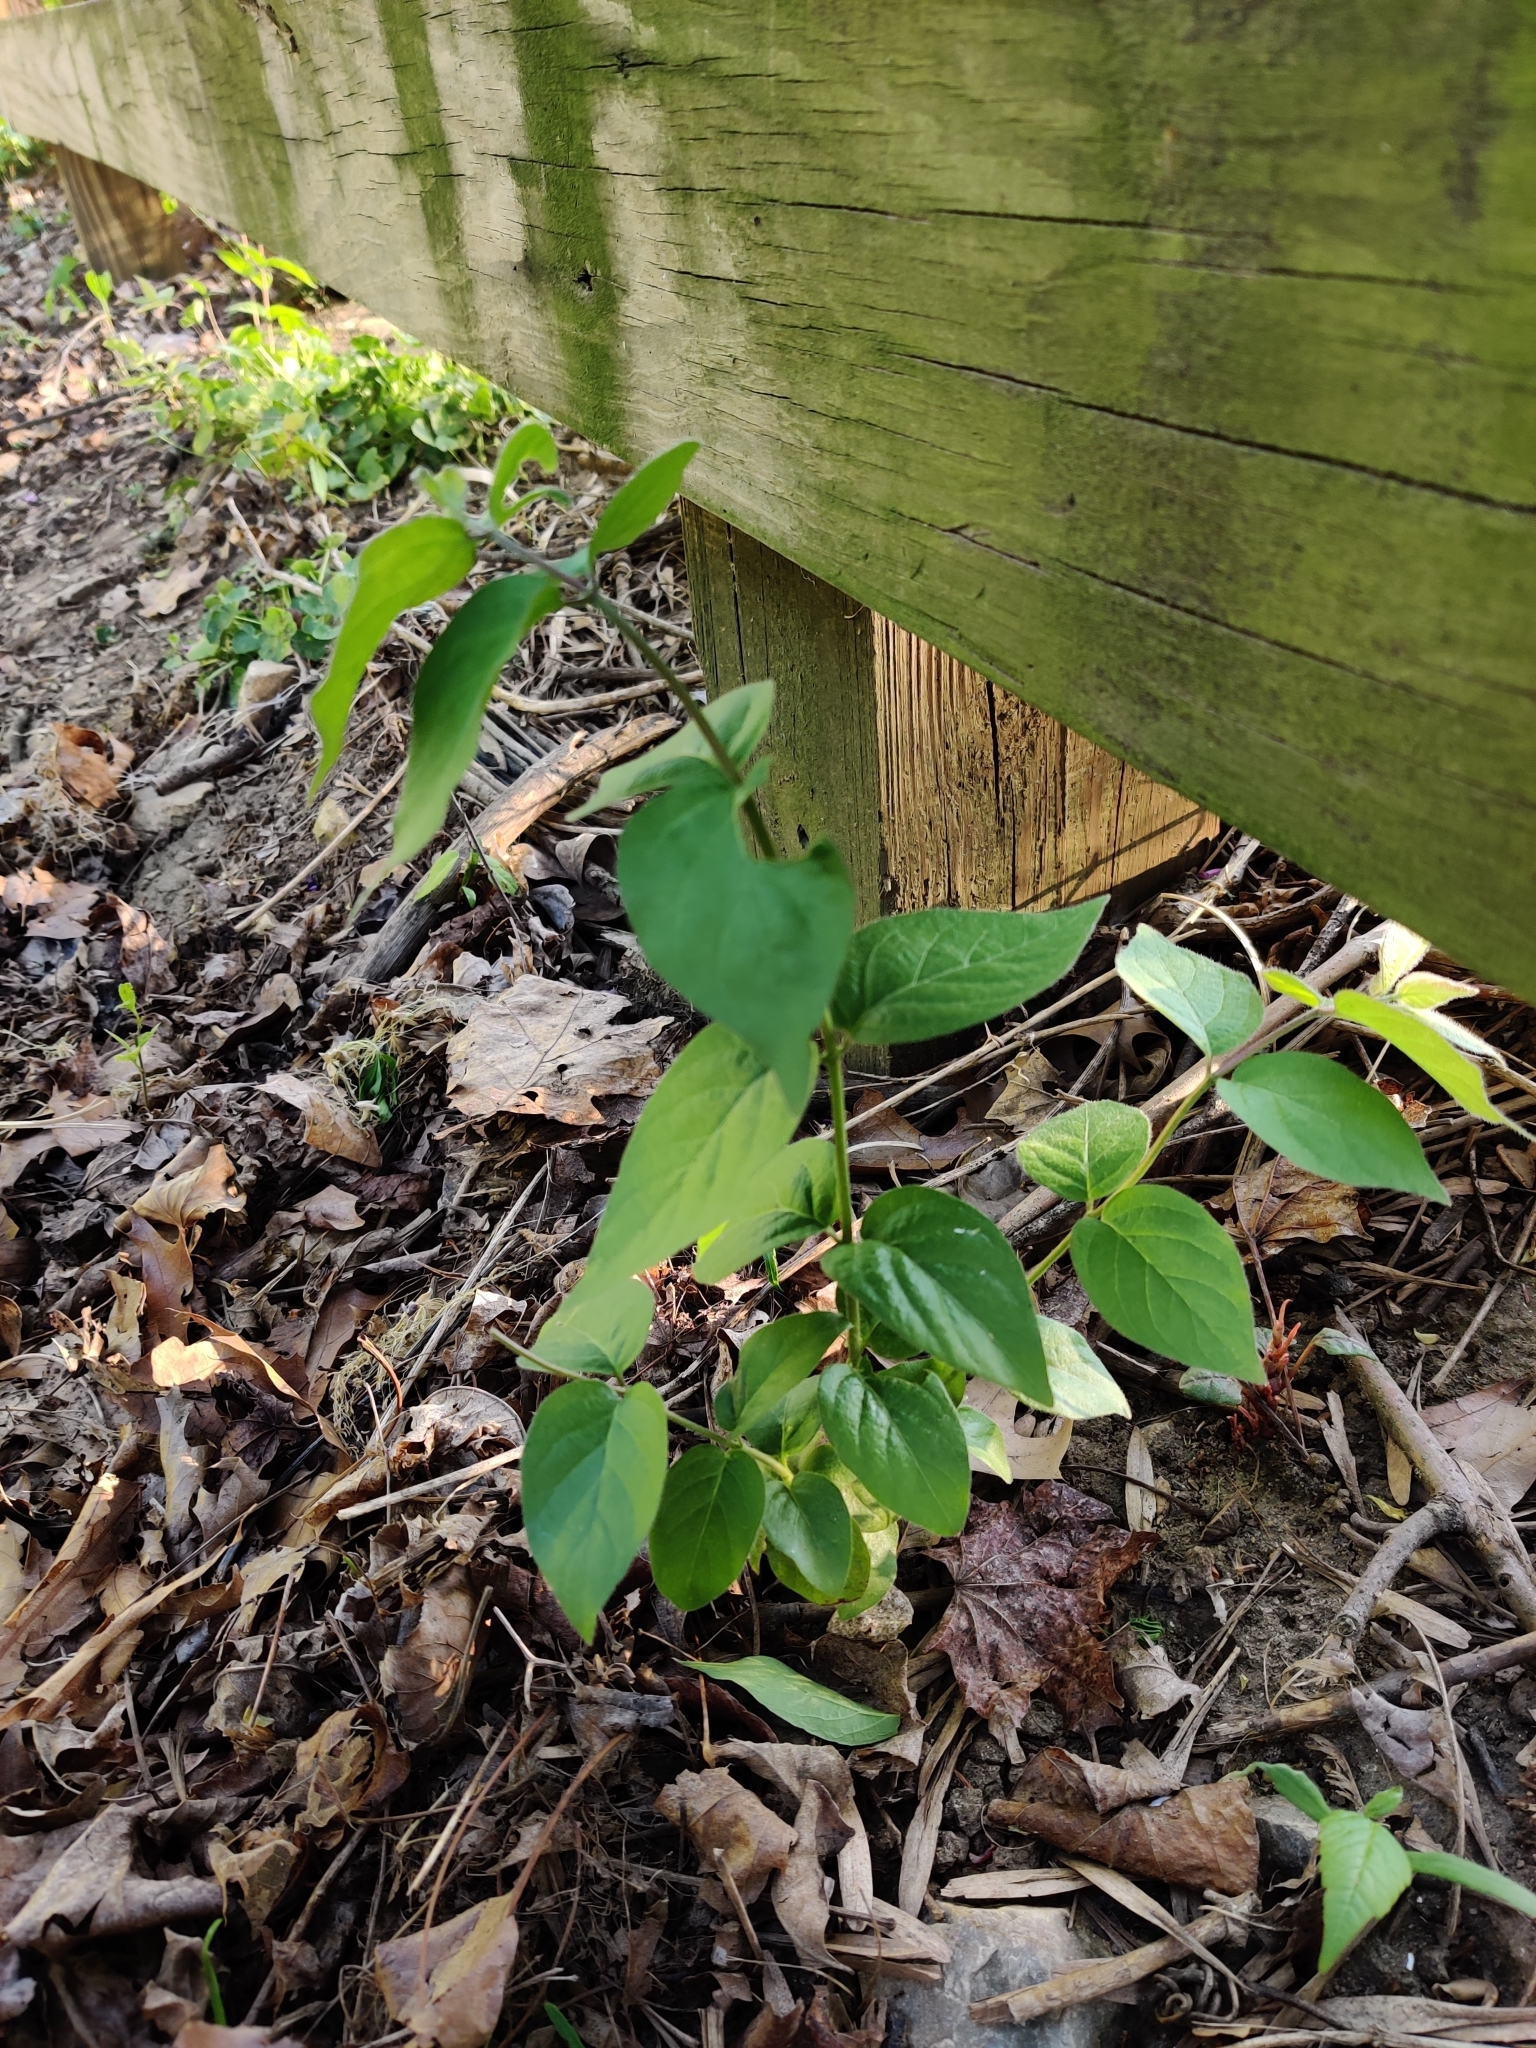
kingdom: Plantae
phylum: Tracheophyta
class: Magnoliopsida
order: Dipsacales
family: Caprifoliaceae
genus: Lonicera
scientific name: Lonicera maackii
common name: Amur honeysuckle
